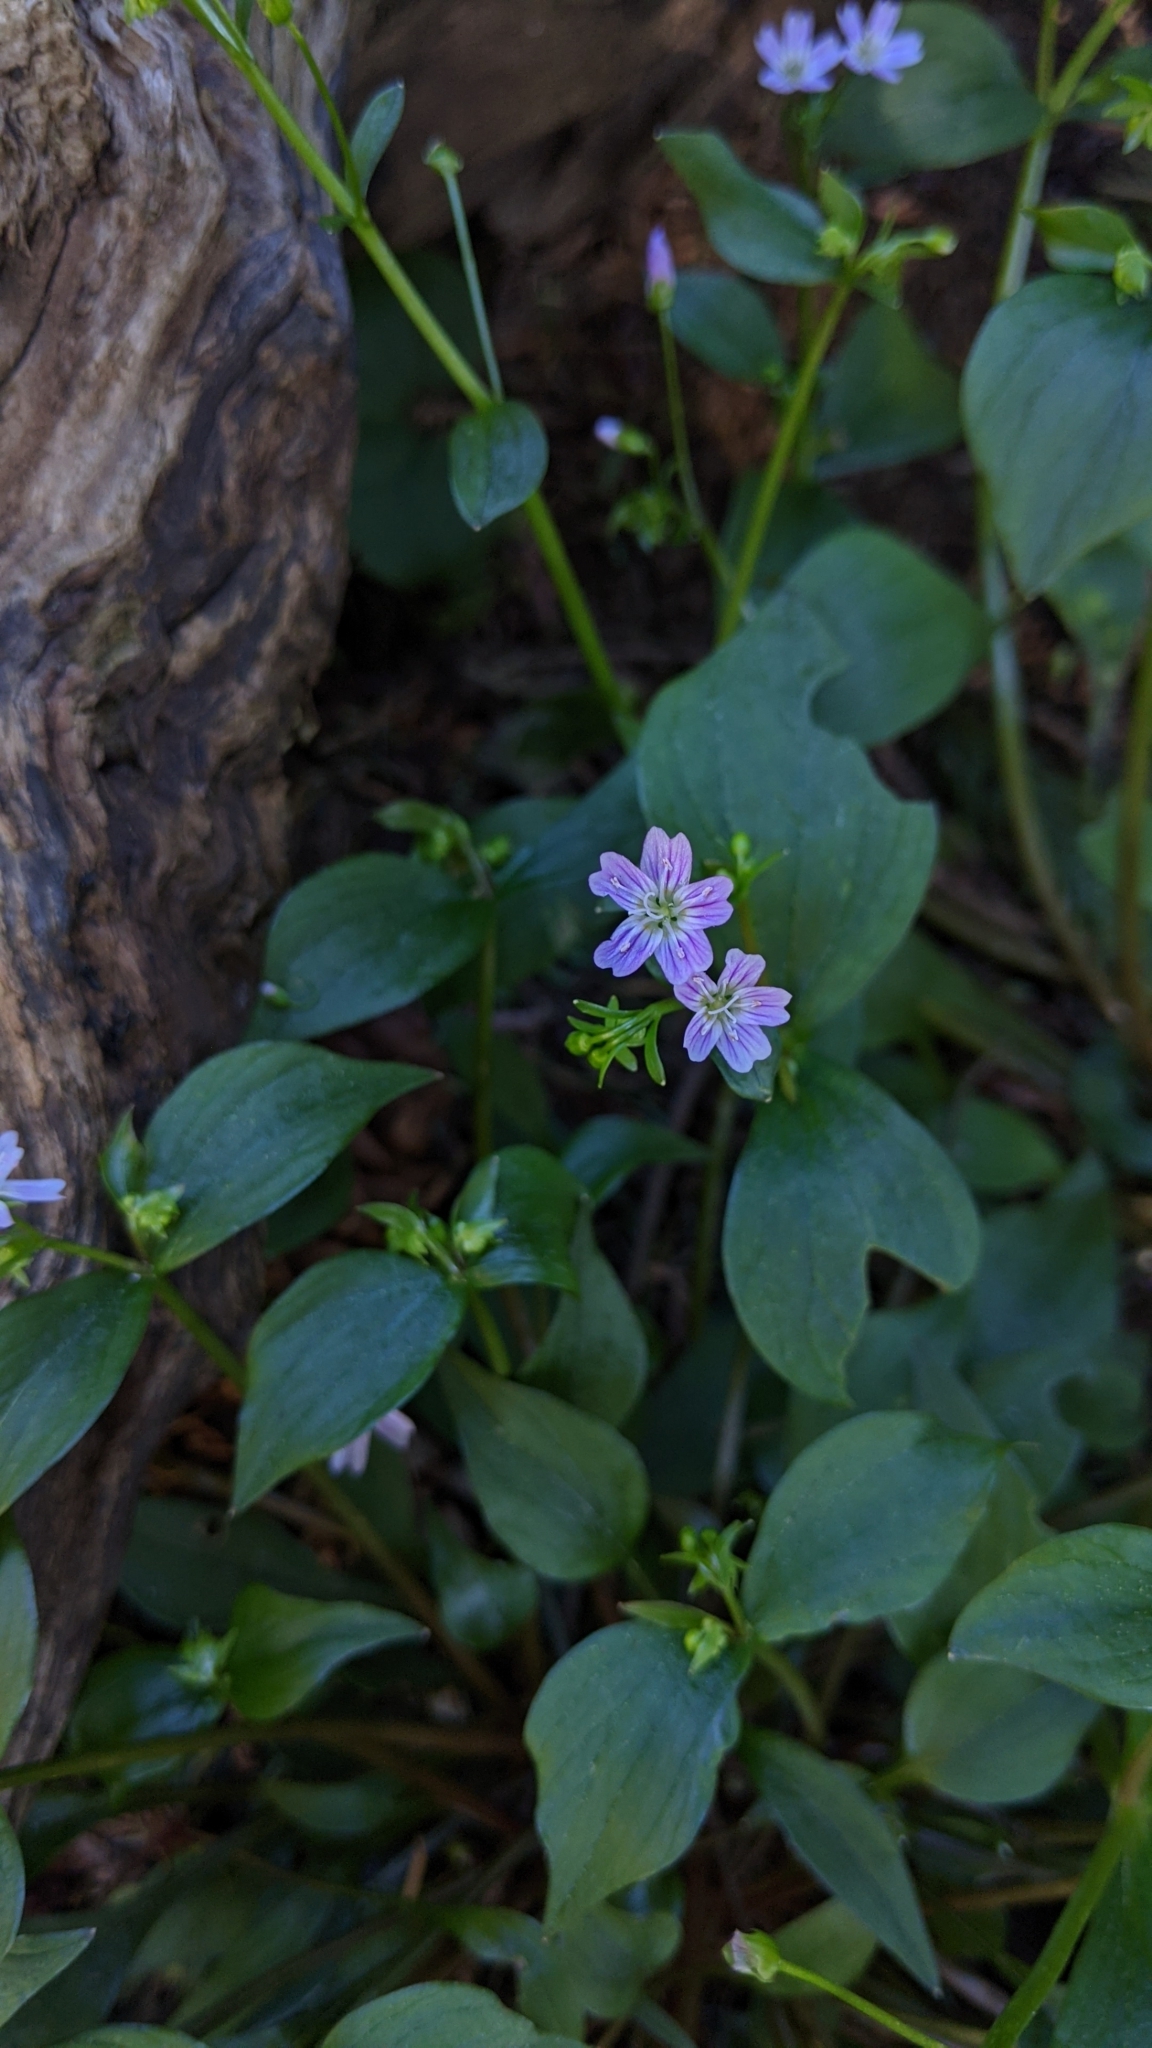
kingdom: Plantae
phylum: Tracheophyta
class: Magnoliopsida
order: Caryophyllales
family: Montiaceae
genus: Claytonia
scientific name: Claytonia sibirica
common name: Pink purslane
